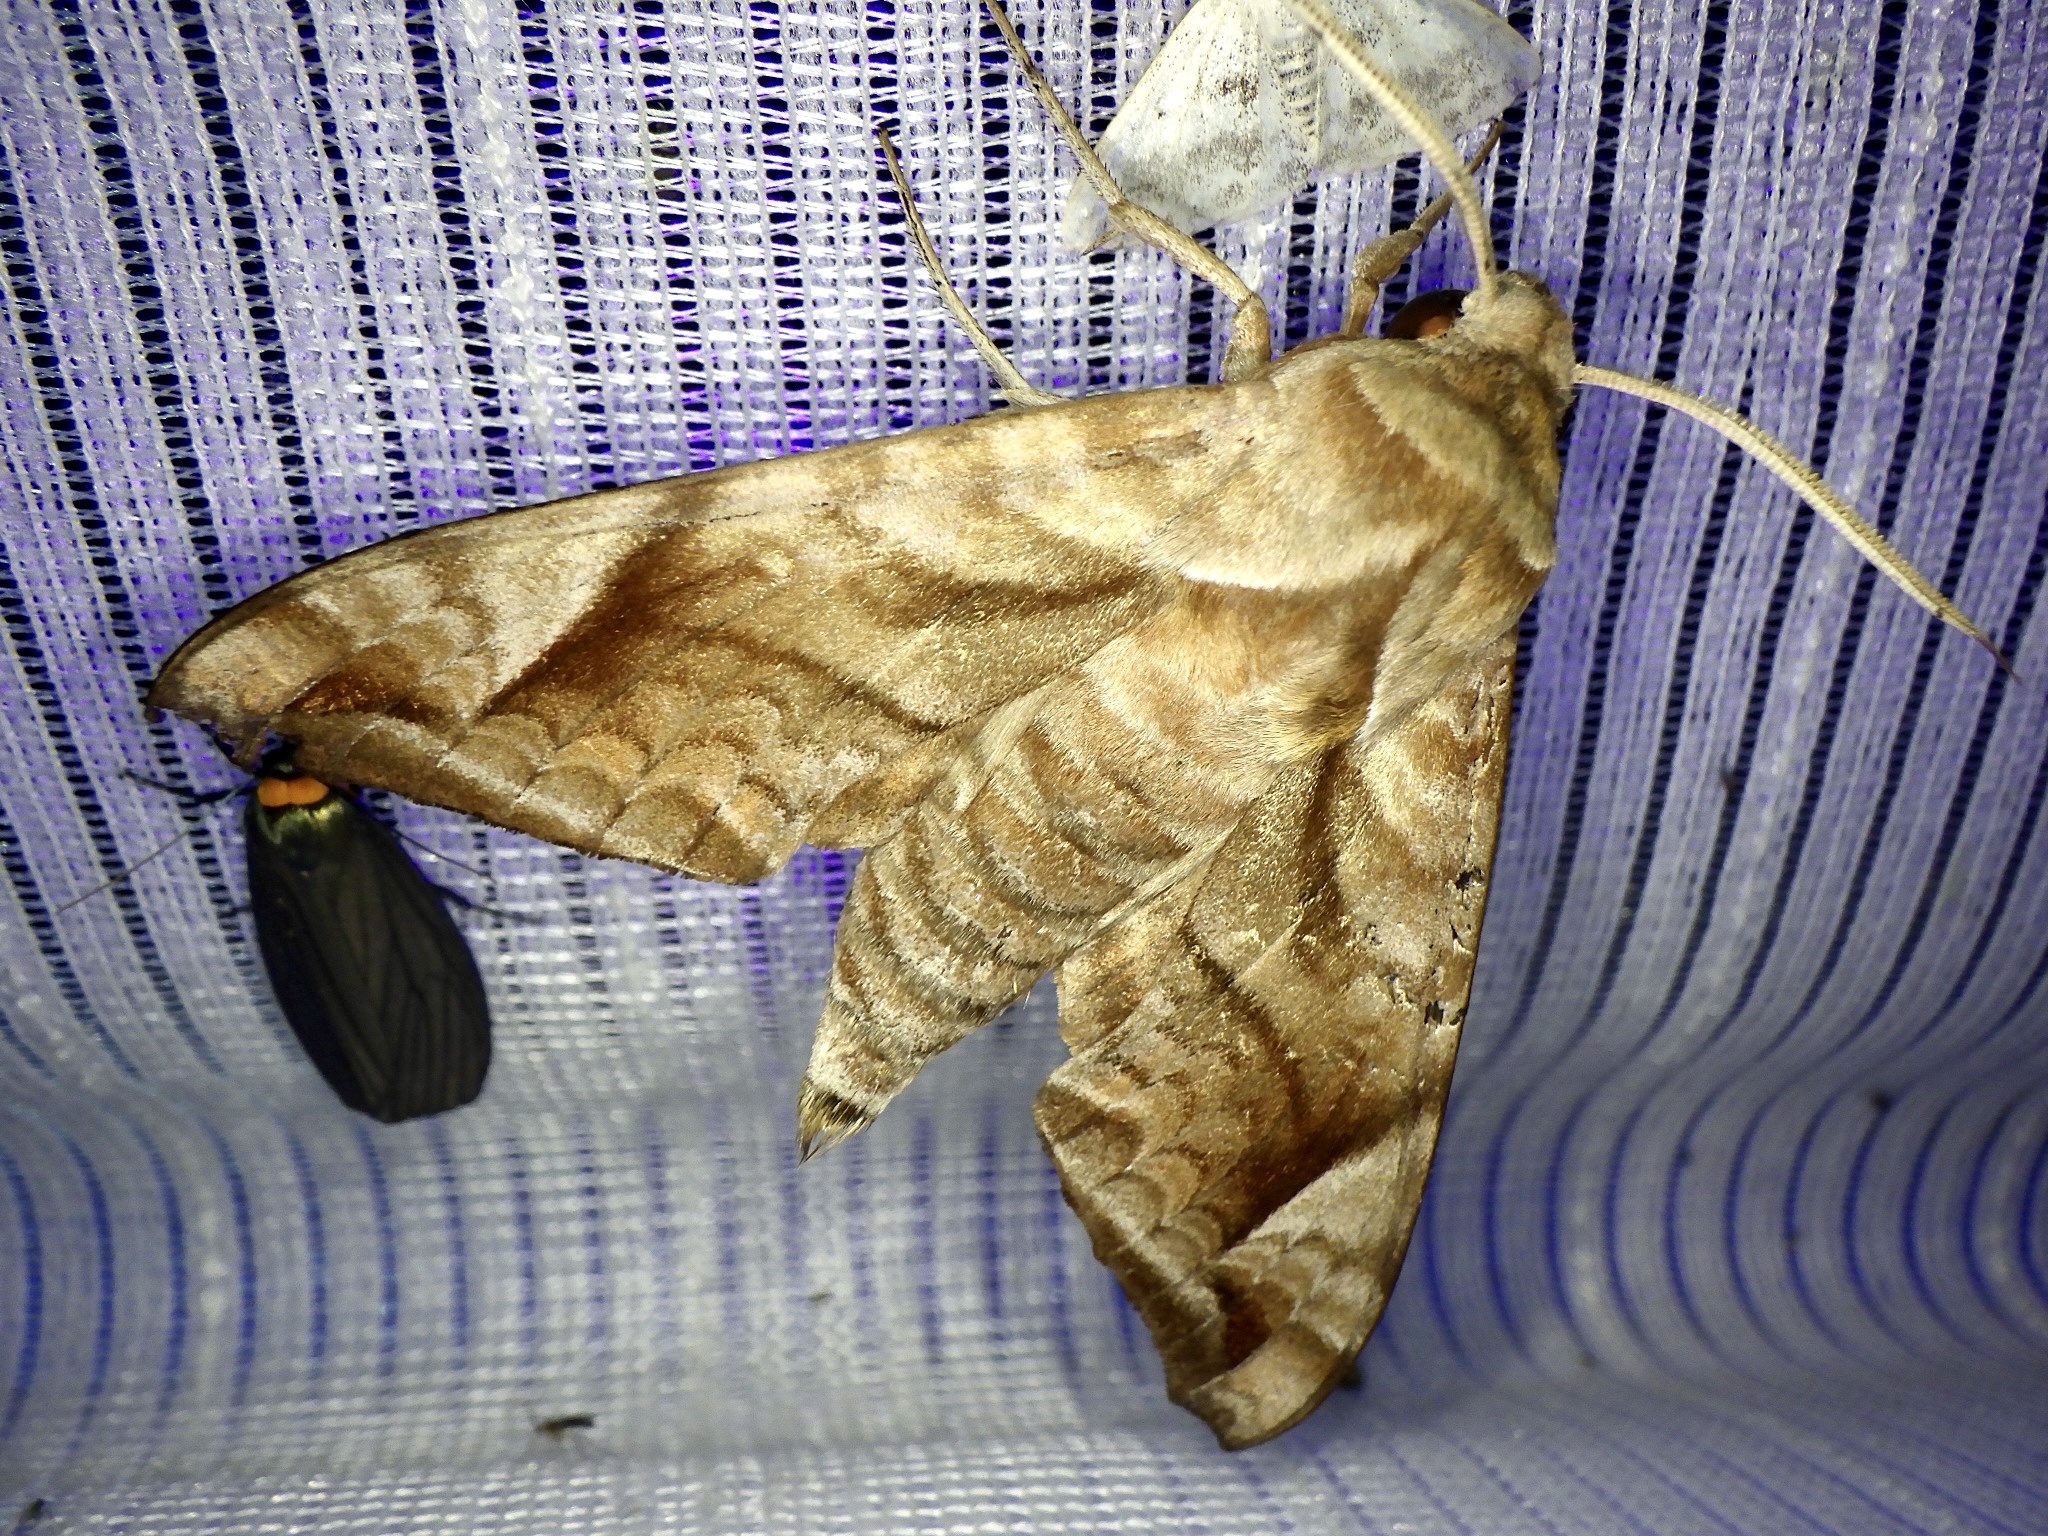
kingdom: Animalia
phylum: Arthropoda
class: Insecta
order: Lepidoptera
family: Sphingidae
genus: Acosmeryx
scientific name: Acosmeryx naga
